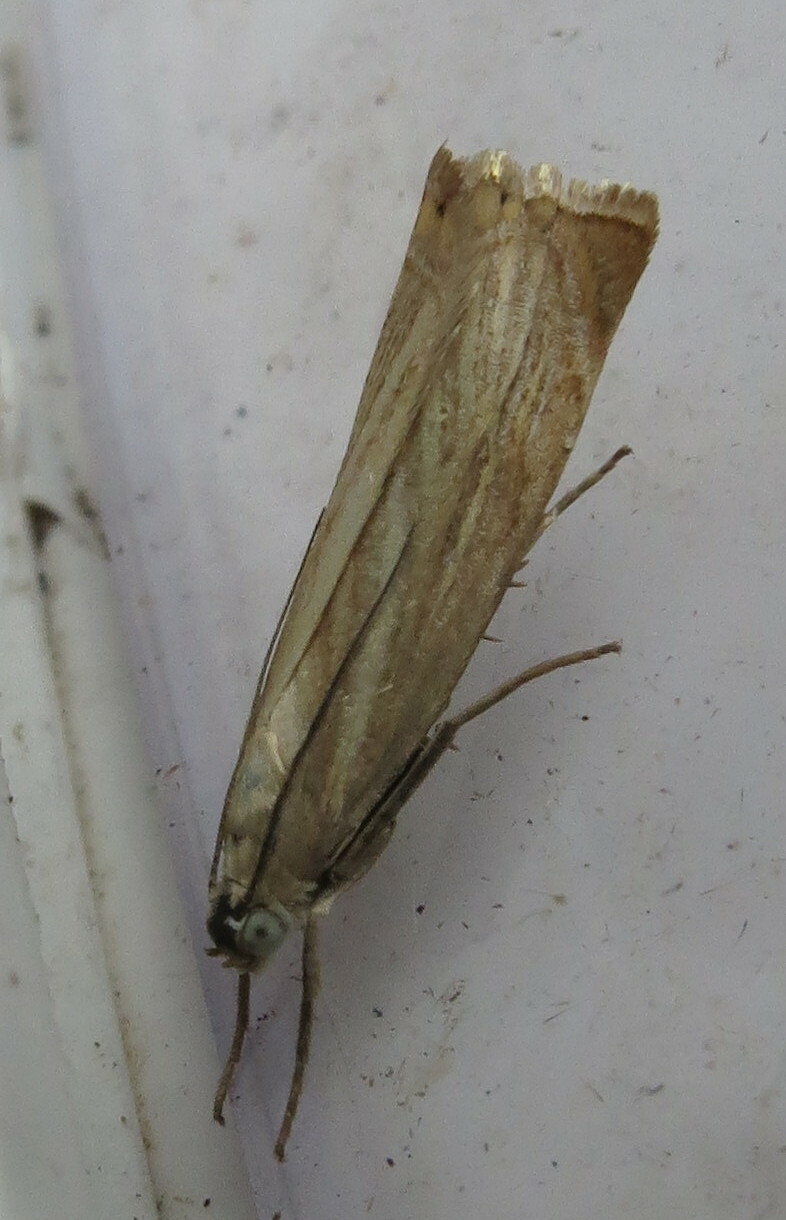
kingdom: Animalia
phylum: Arthropoda
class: Insecta
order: Lepidoptera
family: Crambidae
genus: Chrysoteuchia
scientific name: Chrysoteuchia culmella
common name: Garden grass-veneer
